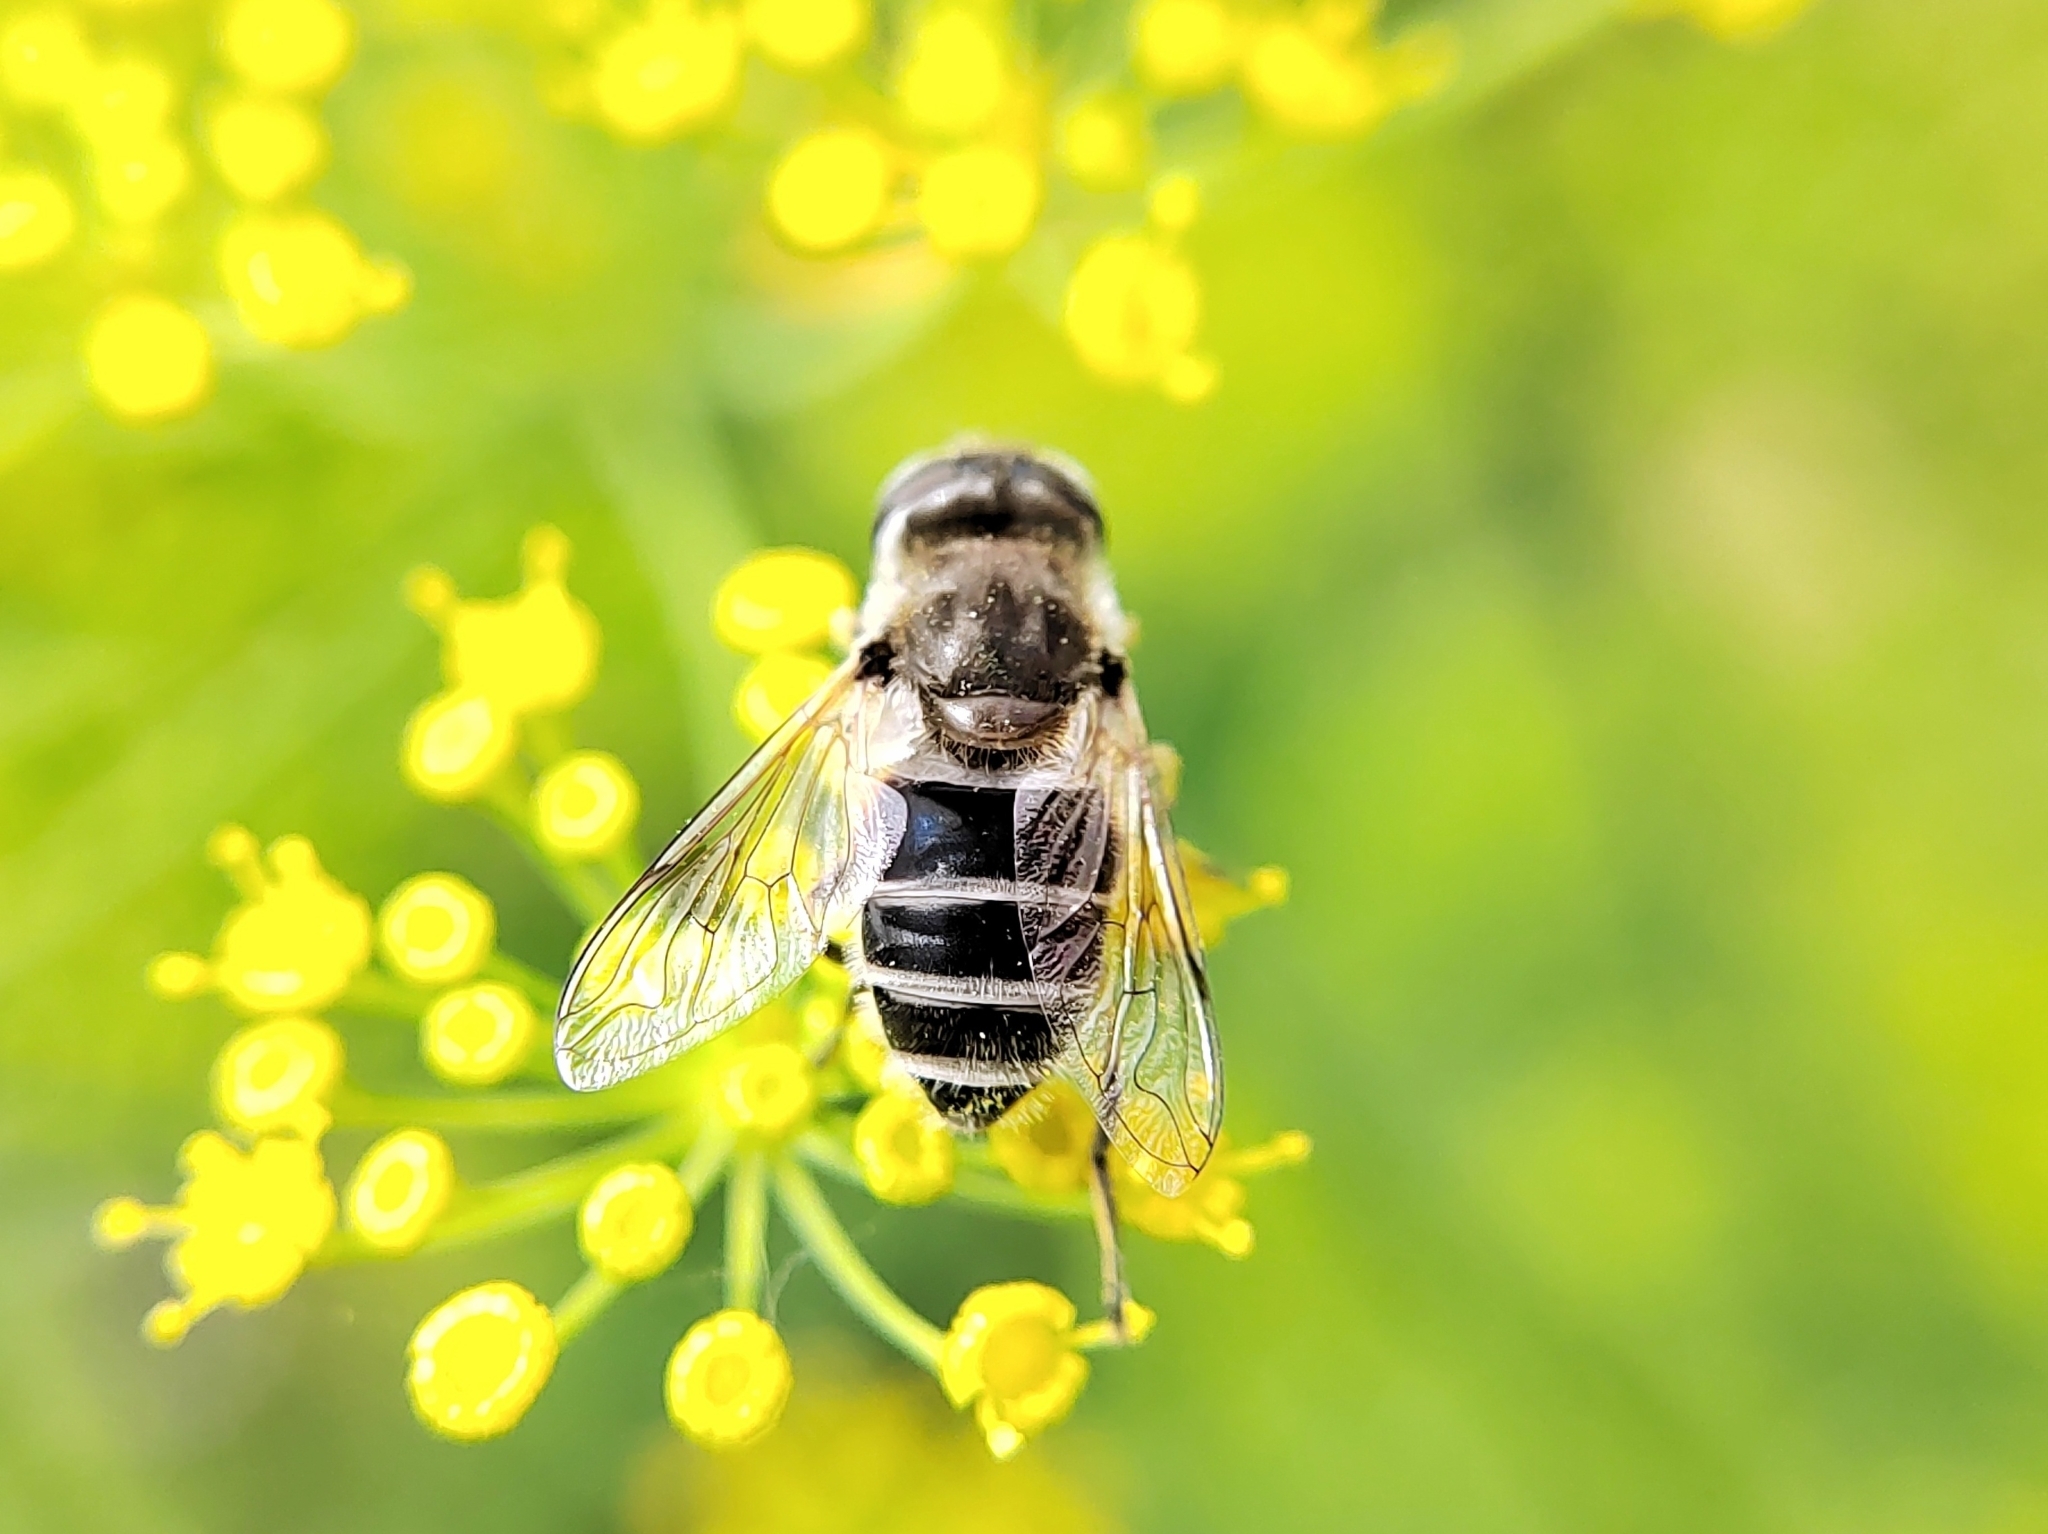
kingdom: Animalia
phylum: Arthropoda
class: Insecta
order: Diptera
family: Syrphidae
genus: Eristalis
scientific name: Eristalis arbustorum
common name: Hover fly
